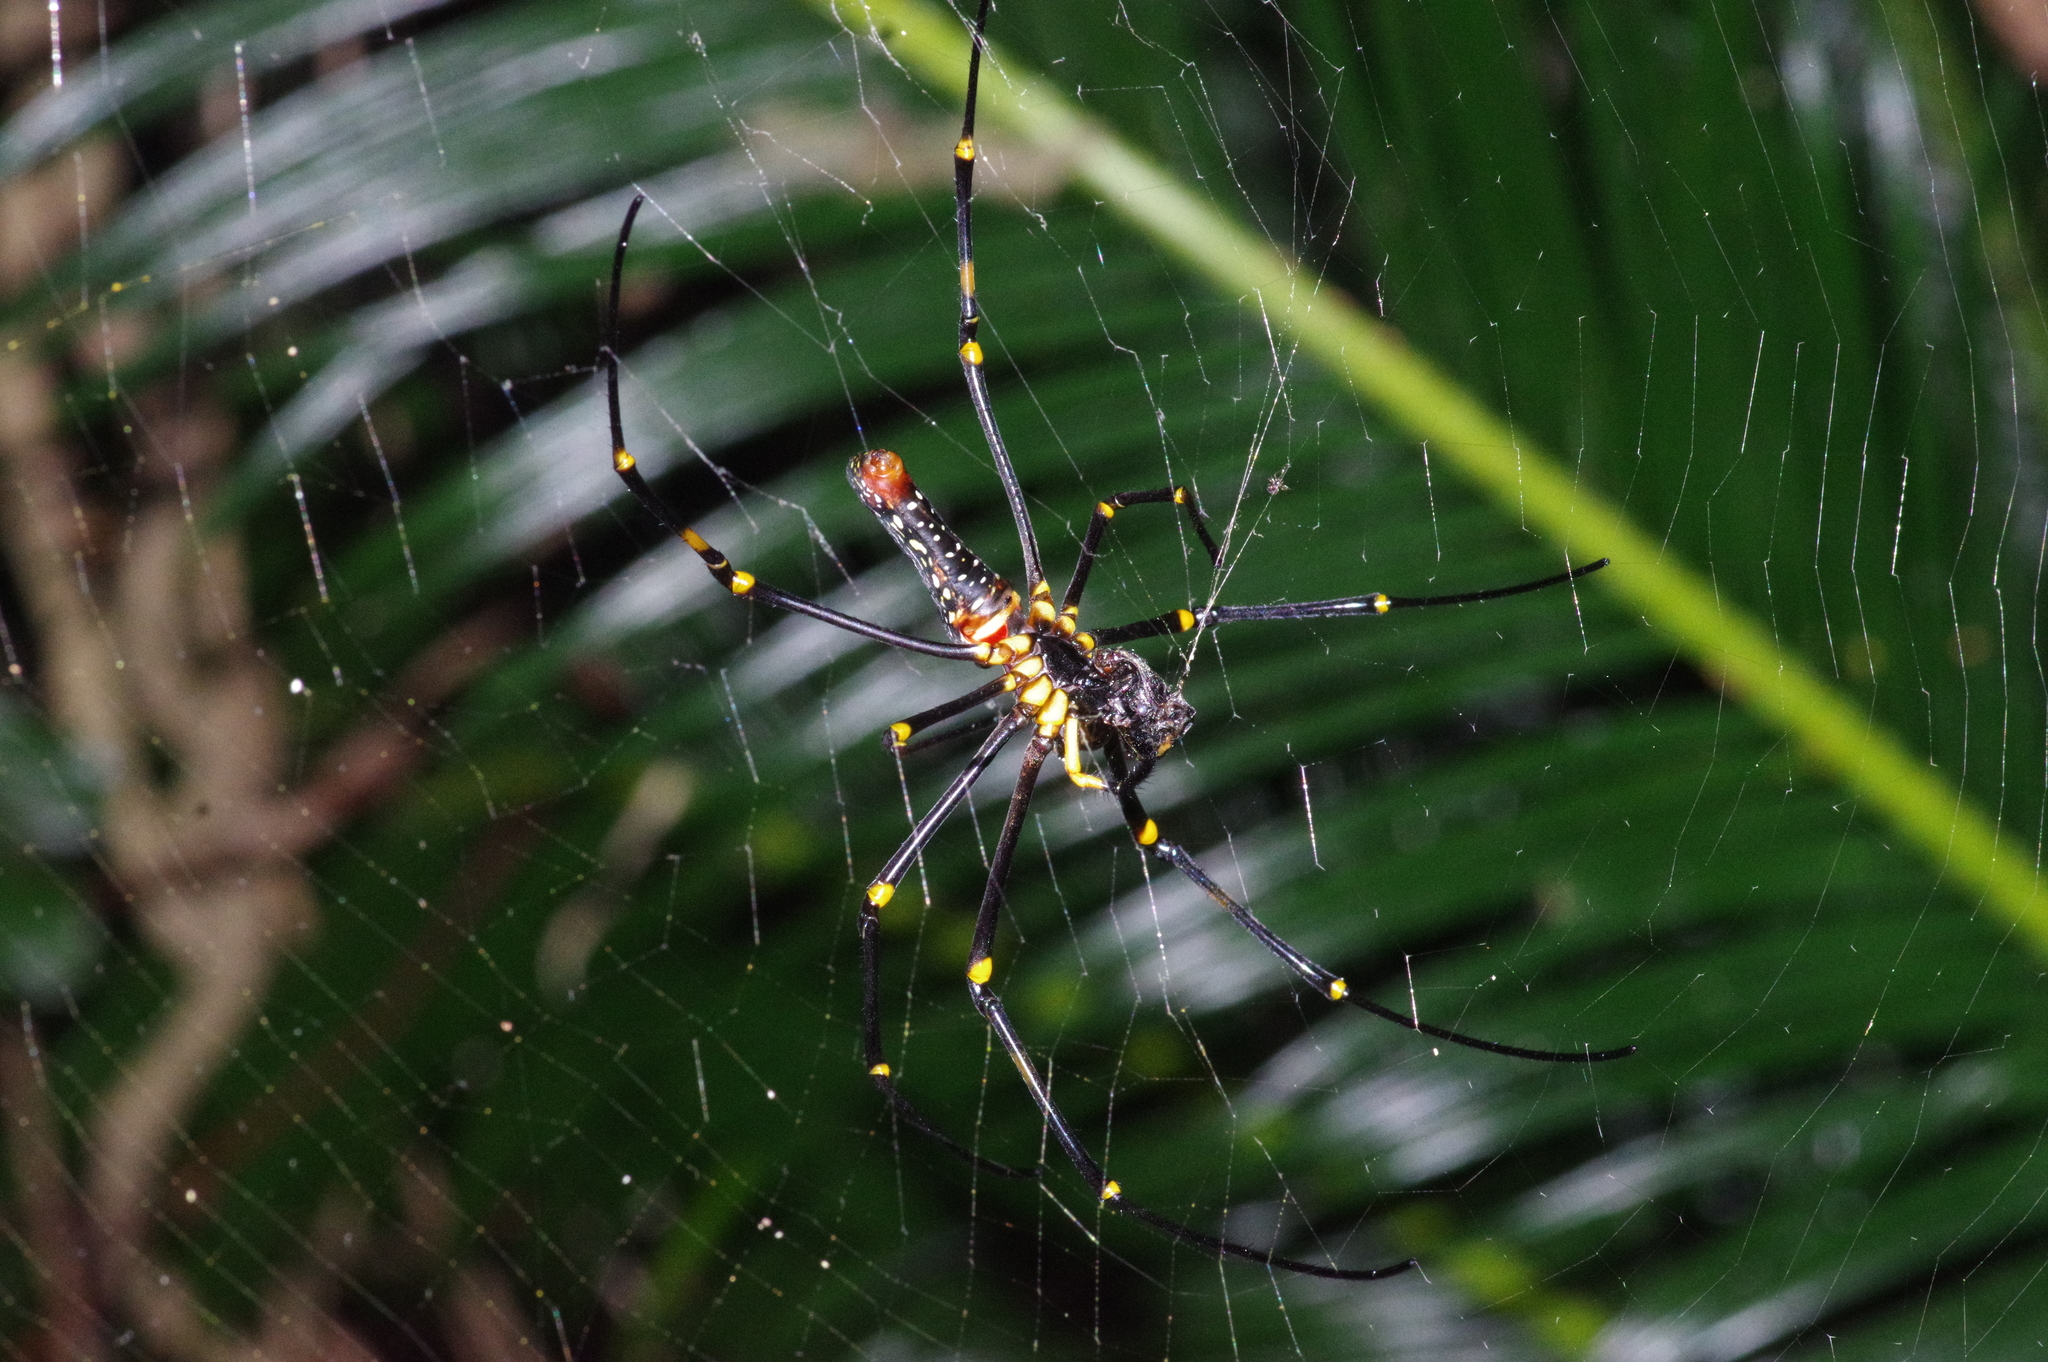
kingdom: Animalia
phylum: Arthropoda
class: Arachnida
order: Araneae
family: Araneidae
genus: Nephila
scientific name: Nephila pilipes
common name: Giant golden orb weaver
